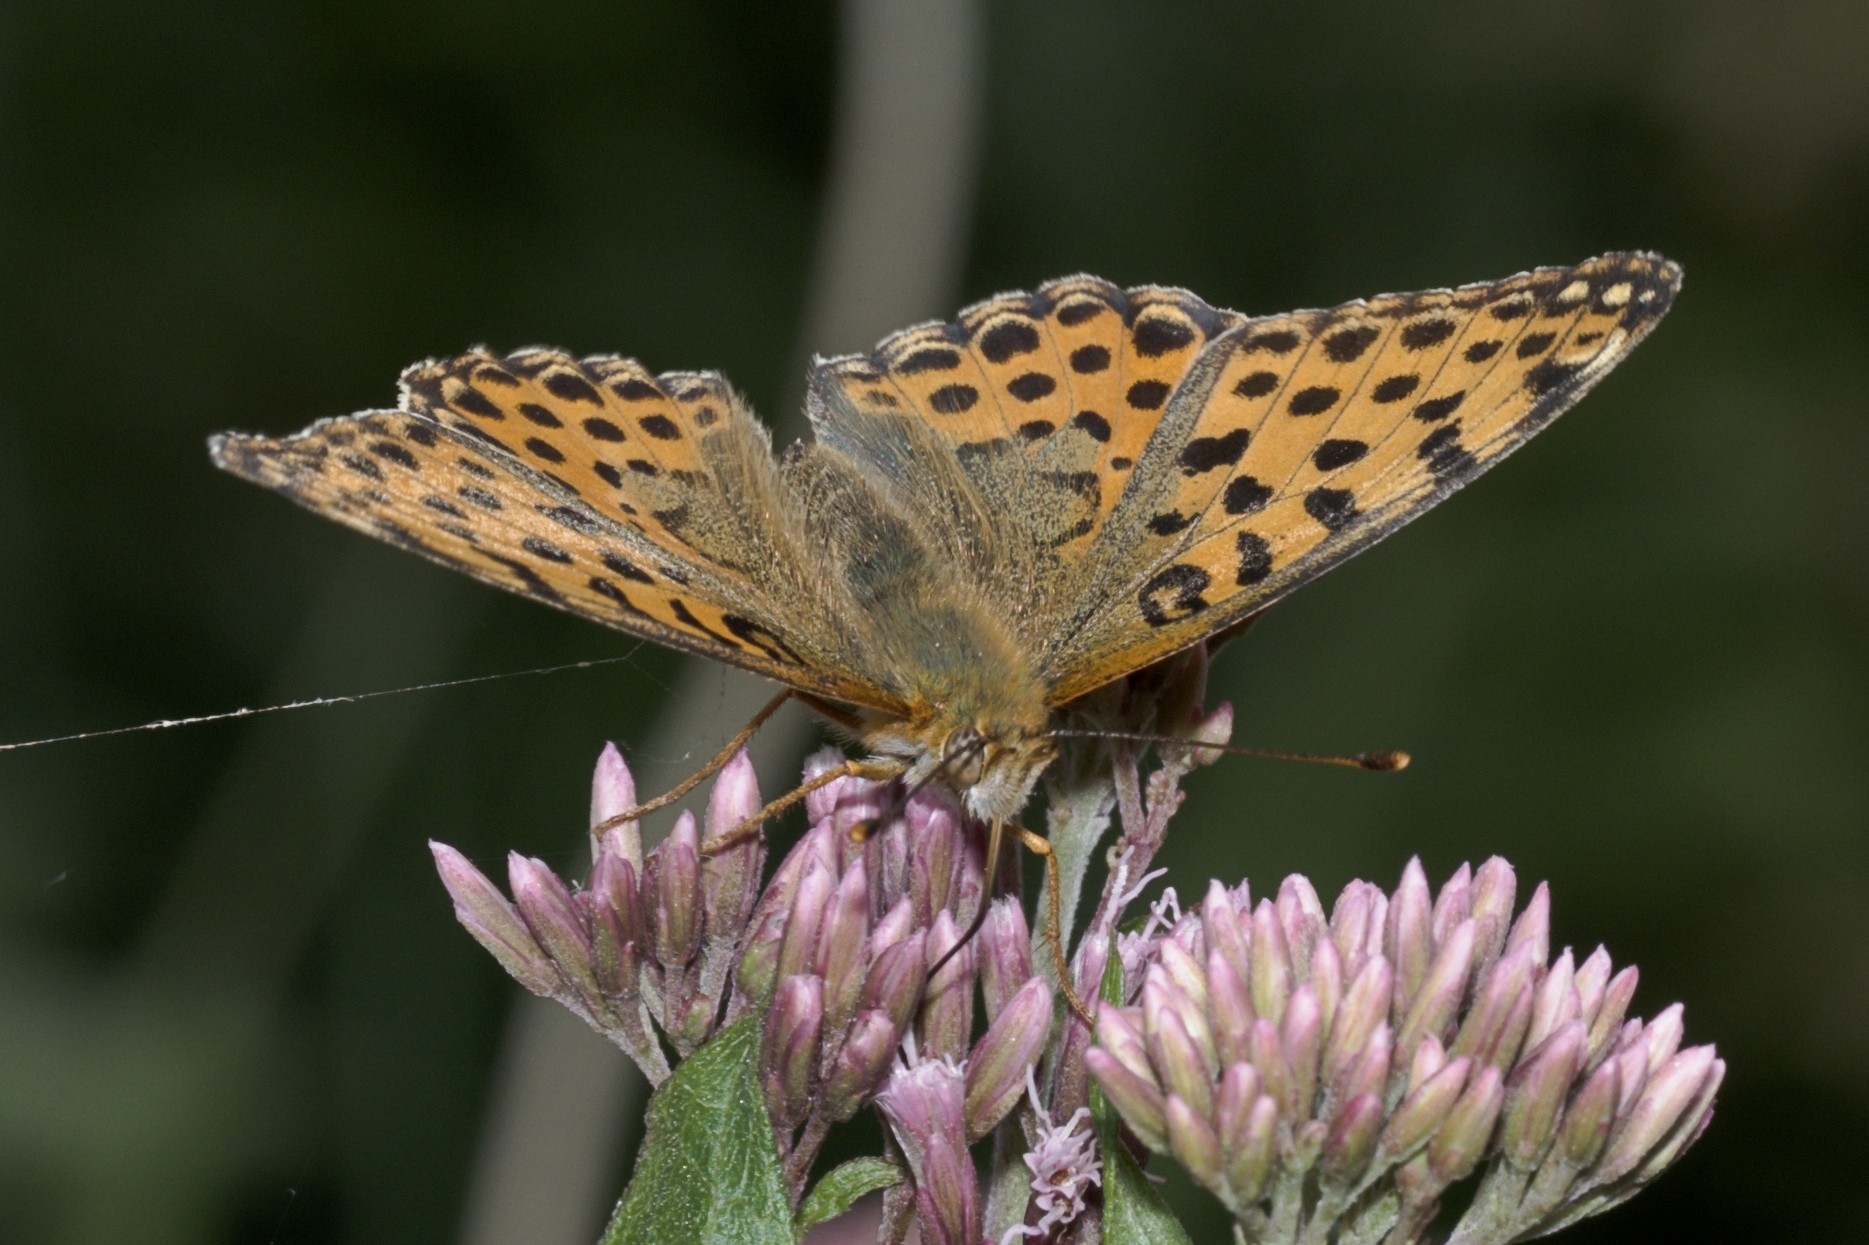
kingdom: Animalia
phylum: Arthropoda
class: Insecta
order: Lepidoptera
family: Nymphalidae
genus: Issoria
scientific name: Issoria lathonia
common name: Queen of spain fritillary
